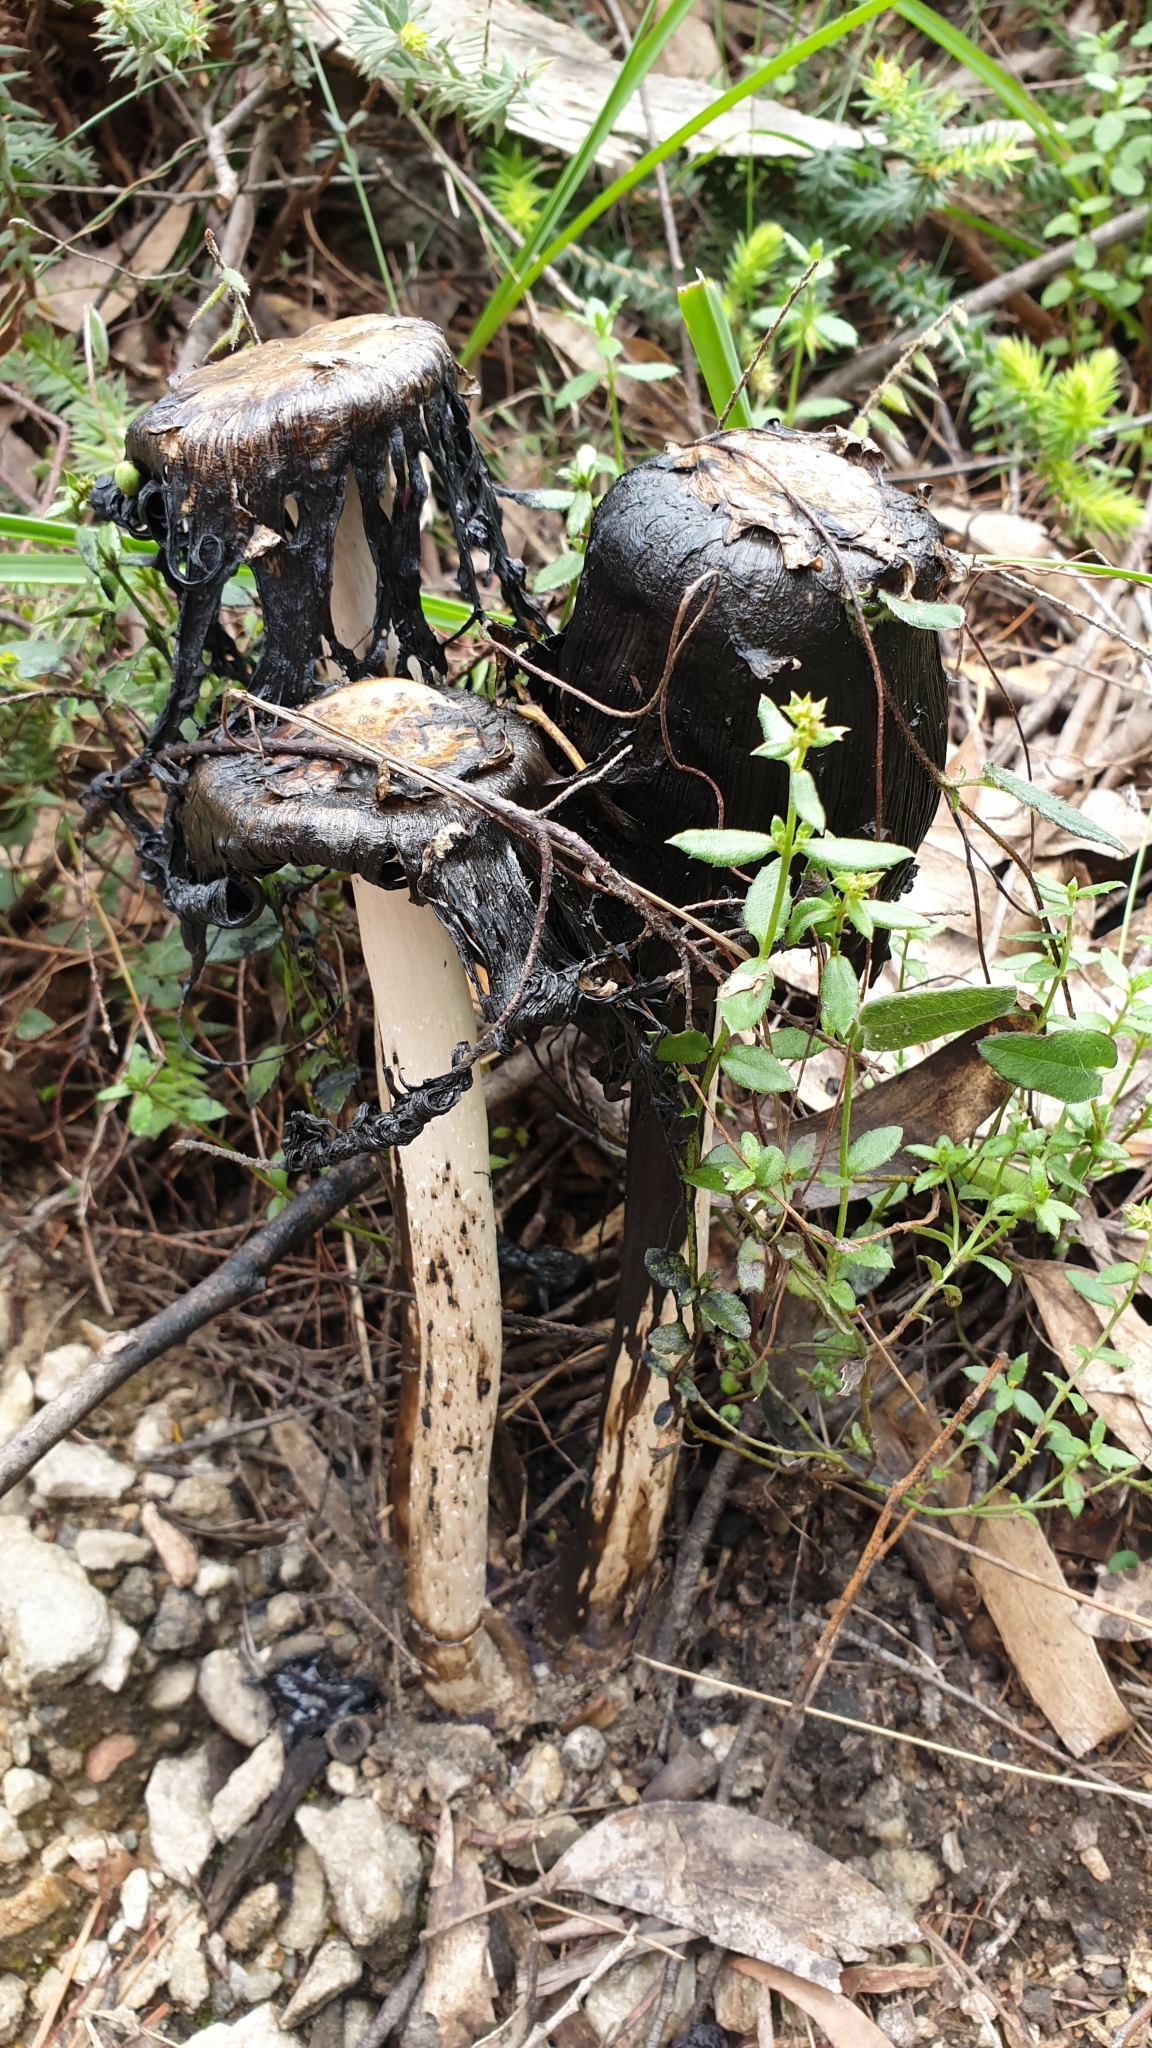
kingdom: Fungi
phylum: Basidiomycota
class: Agaricomycetes
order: Agaricales
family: Agaricaceae
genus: Coprinus
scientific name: Coprinus comatus
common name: Lawyer's wig
